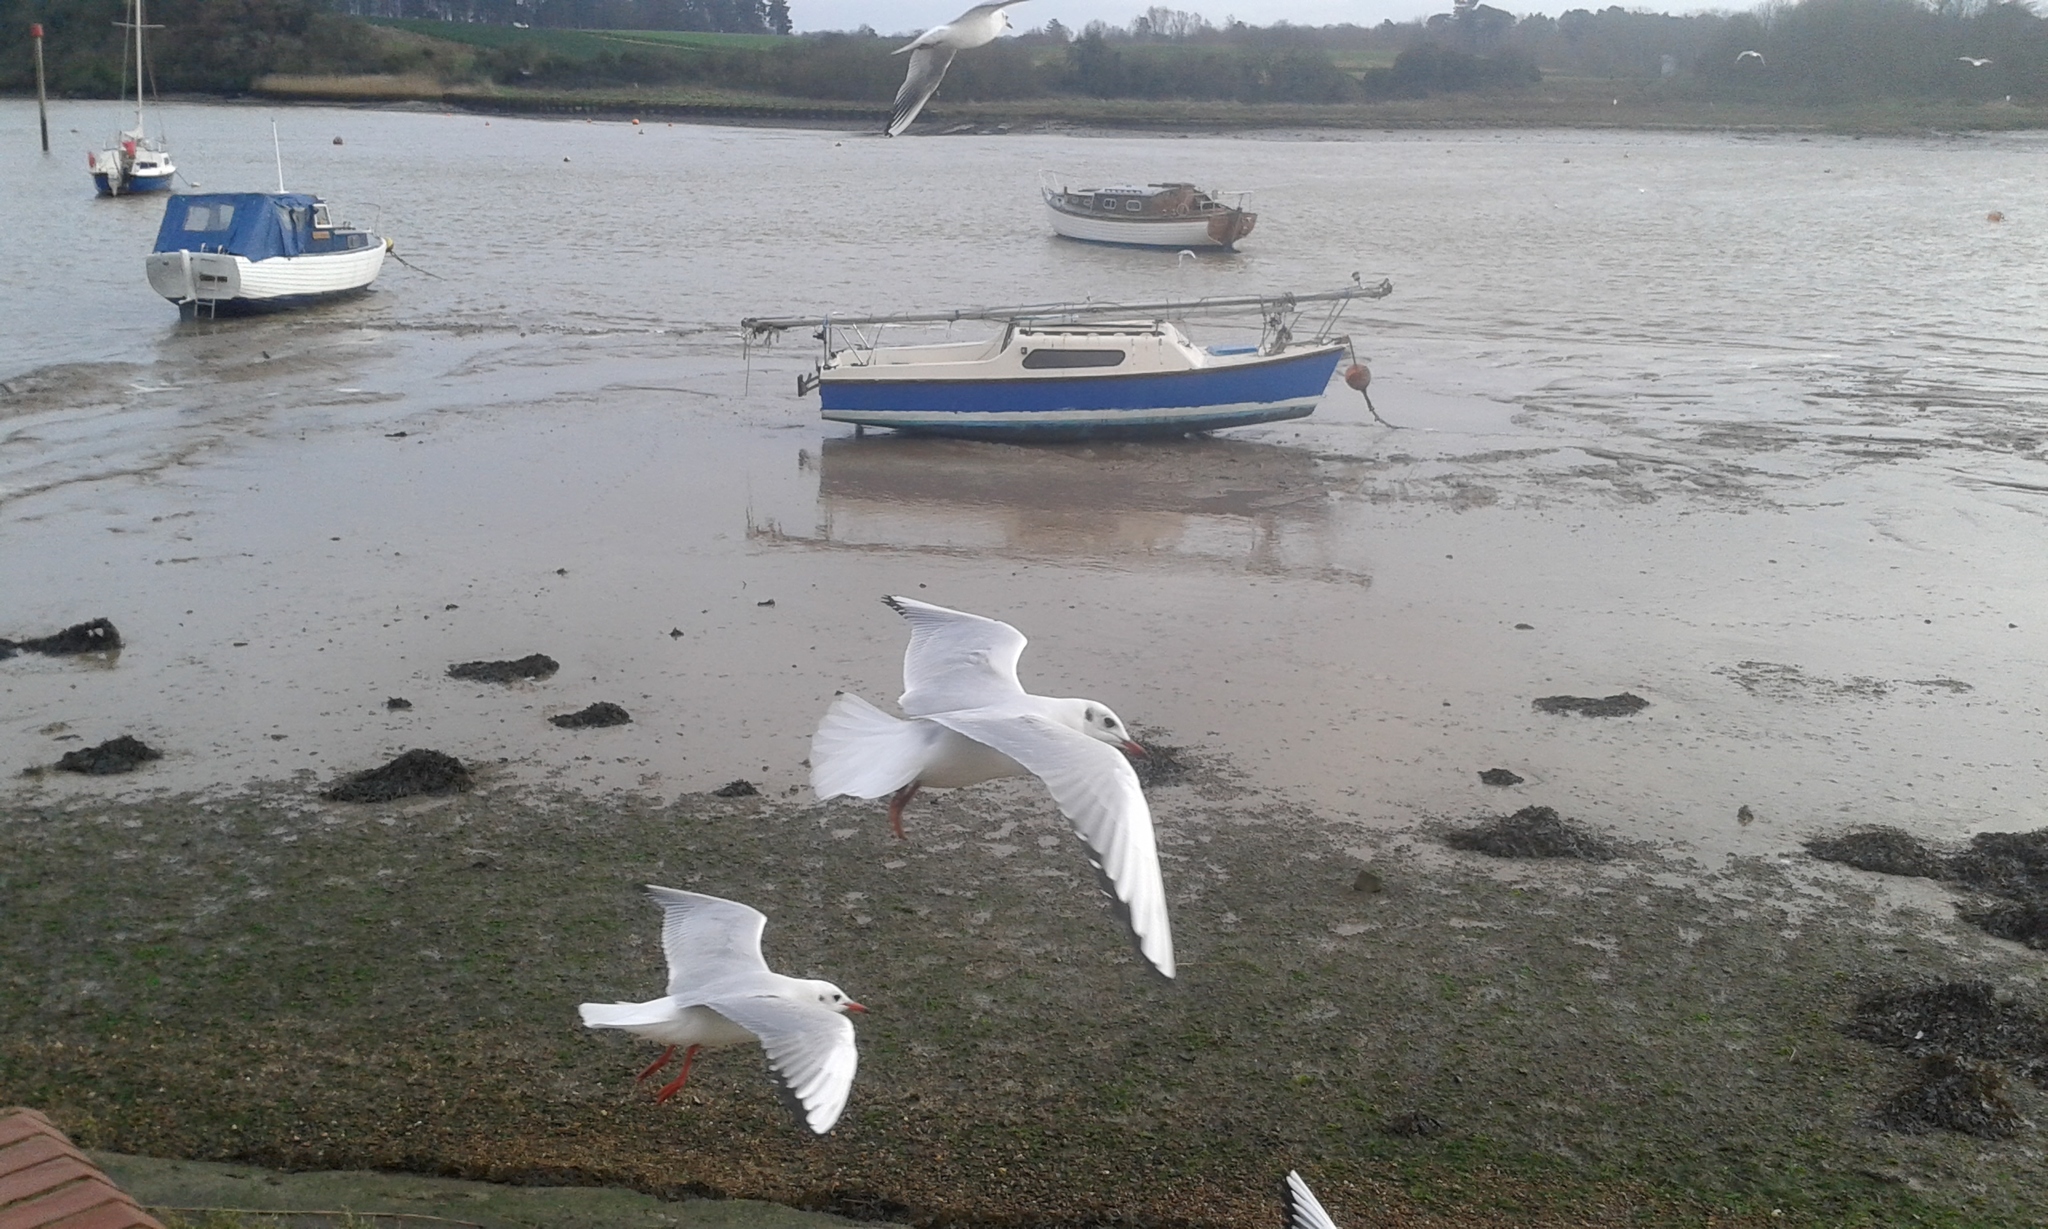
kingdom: Animalia
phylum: Chordata
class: Aves
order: Charadriiformes
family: Laridae
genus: Chroicocephalus
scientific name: Chroicocephalus ridibundus
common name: Black-headed gull
